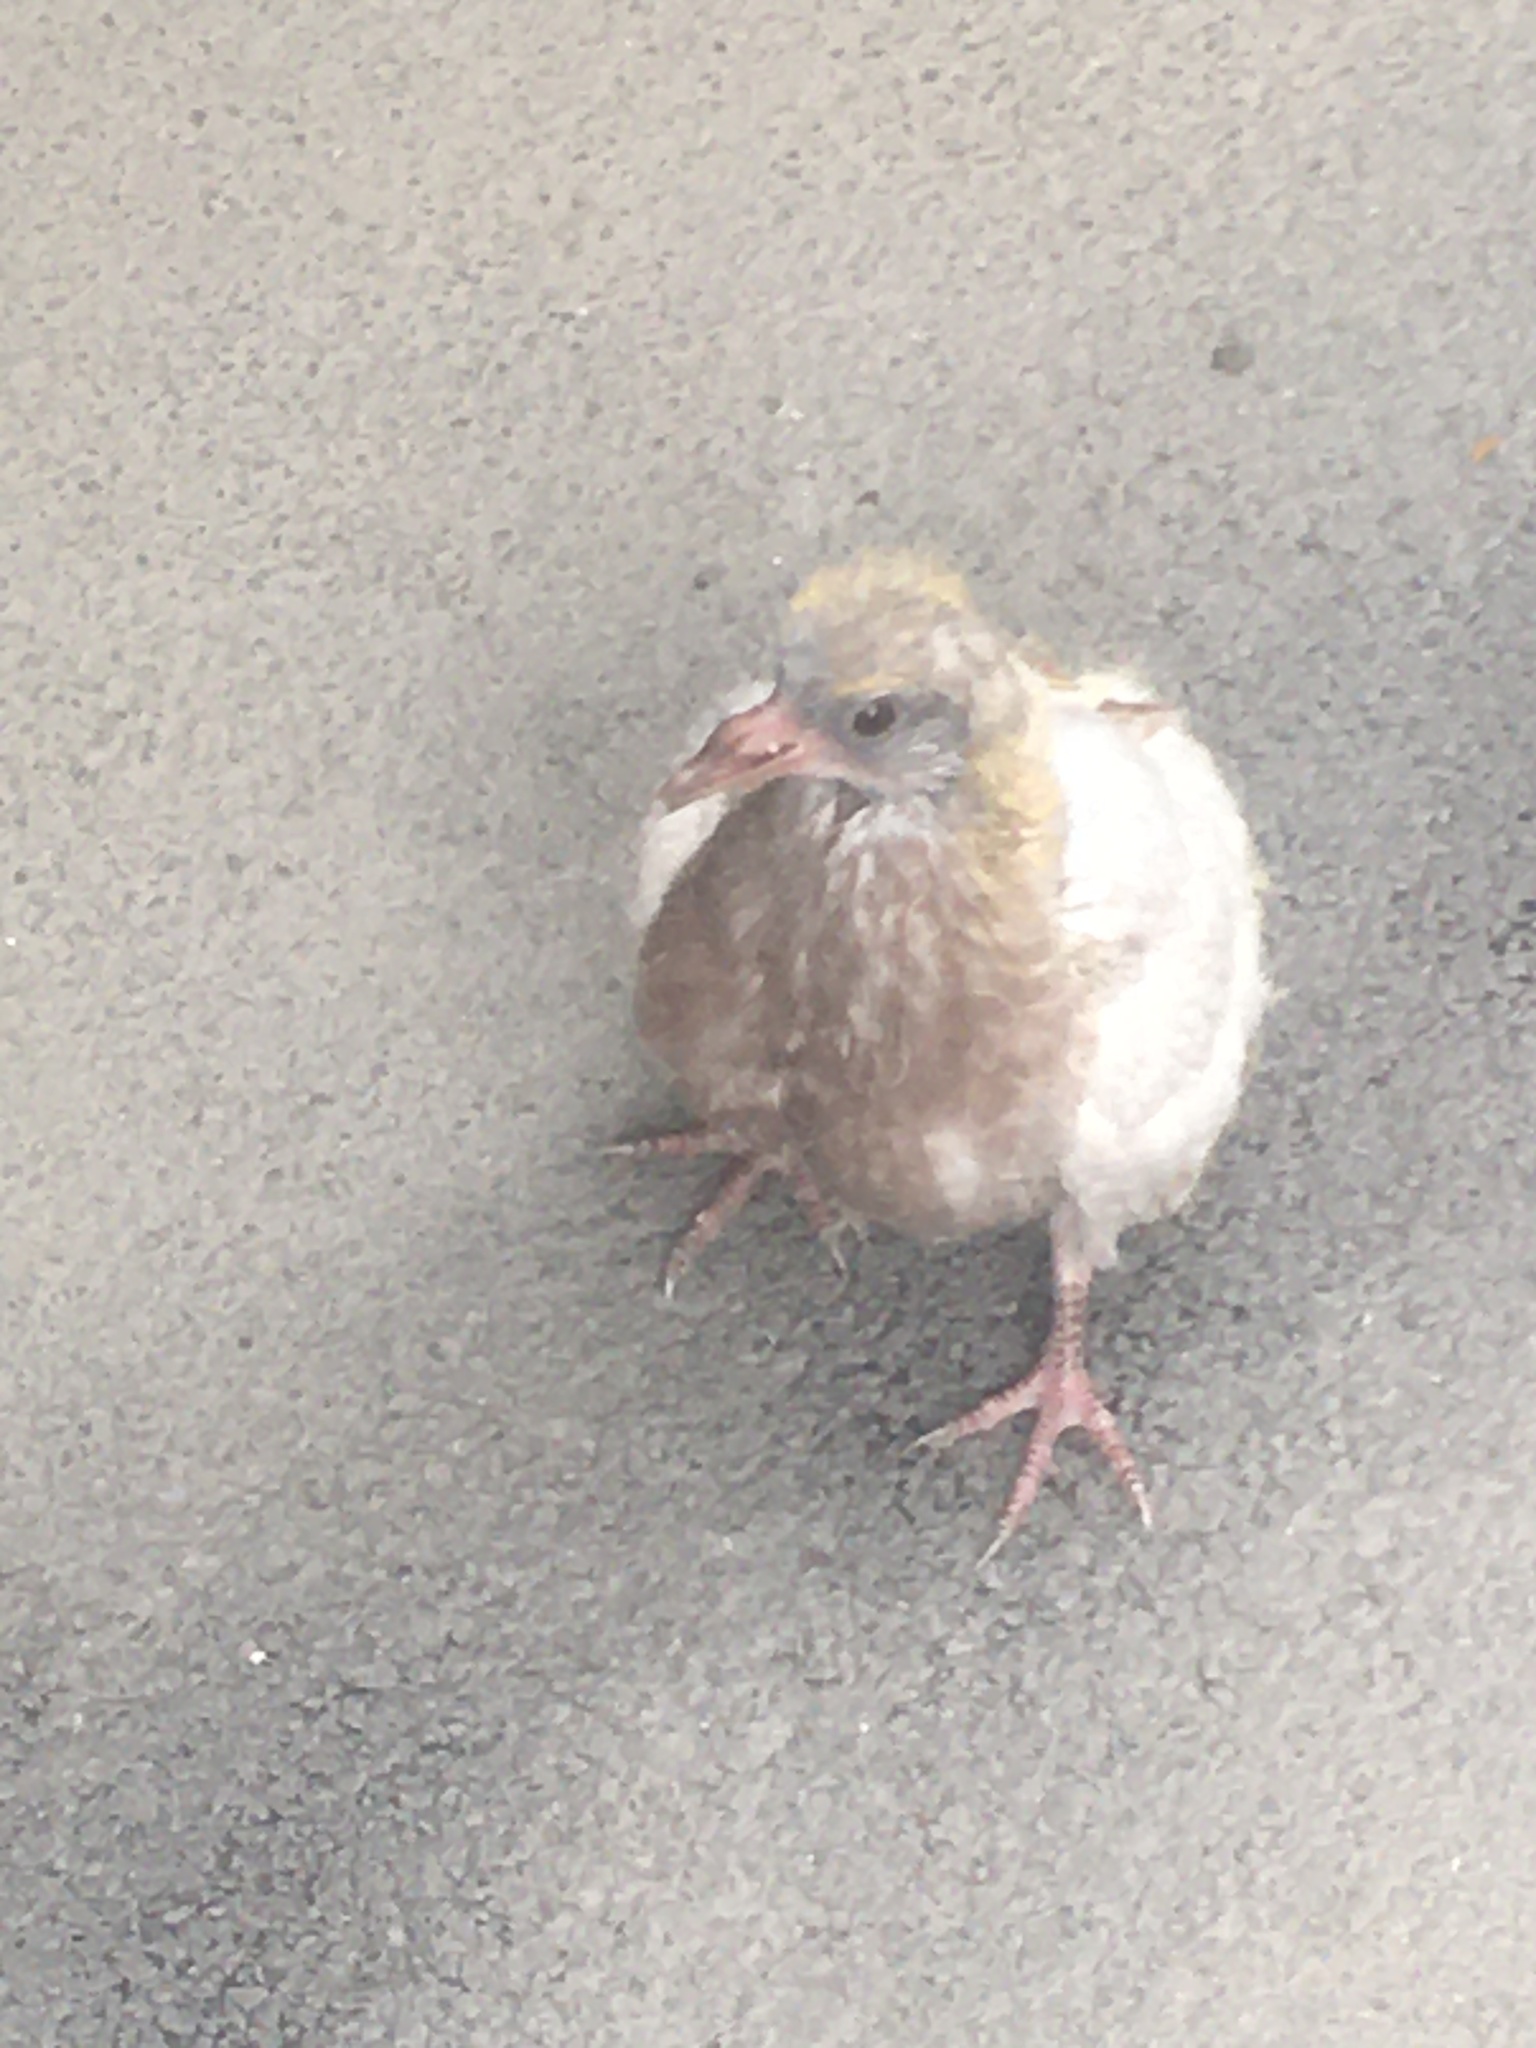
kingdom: Animalia
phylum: Chordata
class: Aves
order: Columbiformes
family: Columbidae
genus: Columba
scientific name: Columba livia
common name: Rock pigeon
